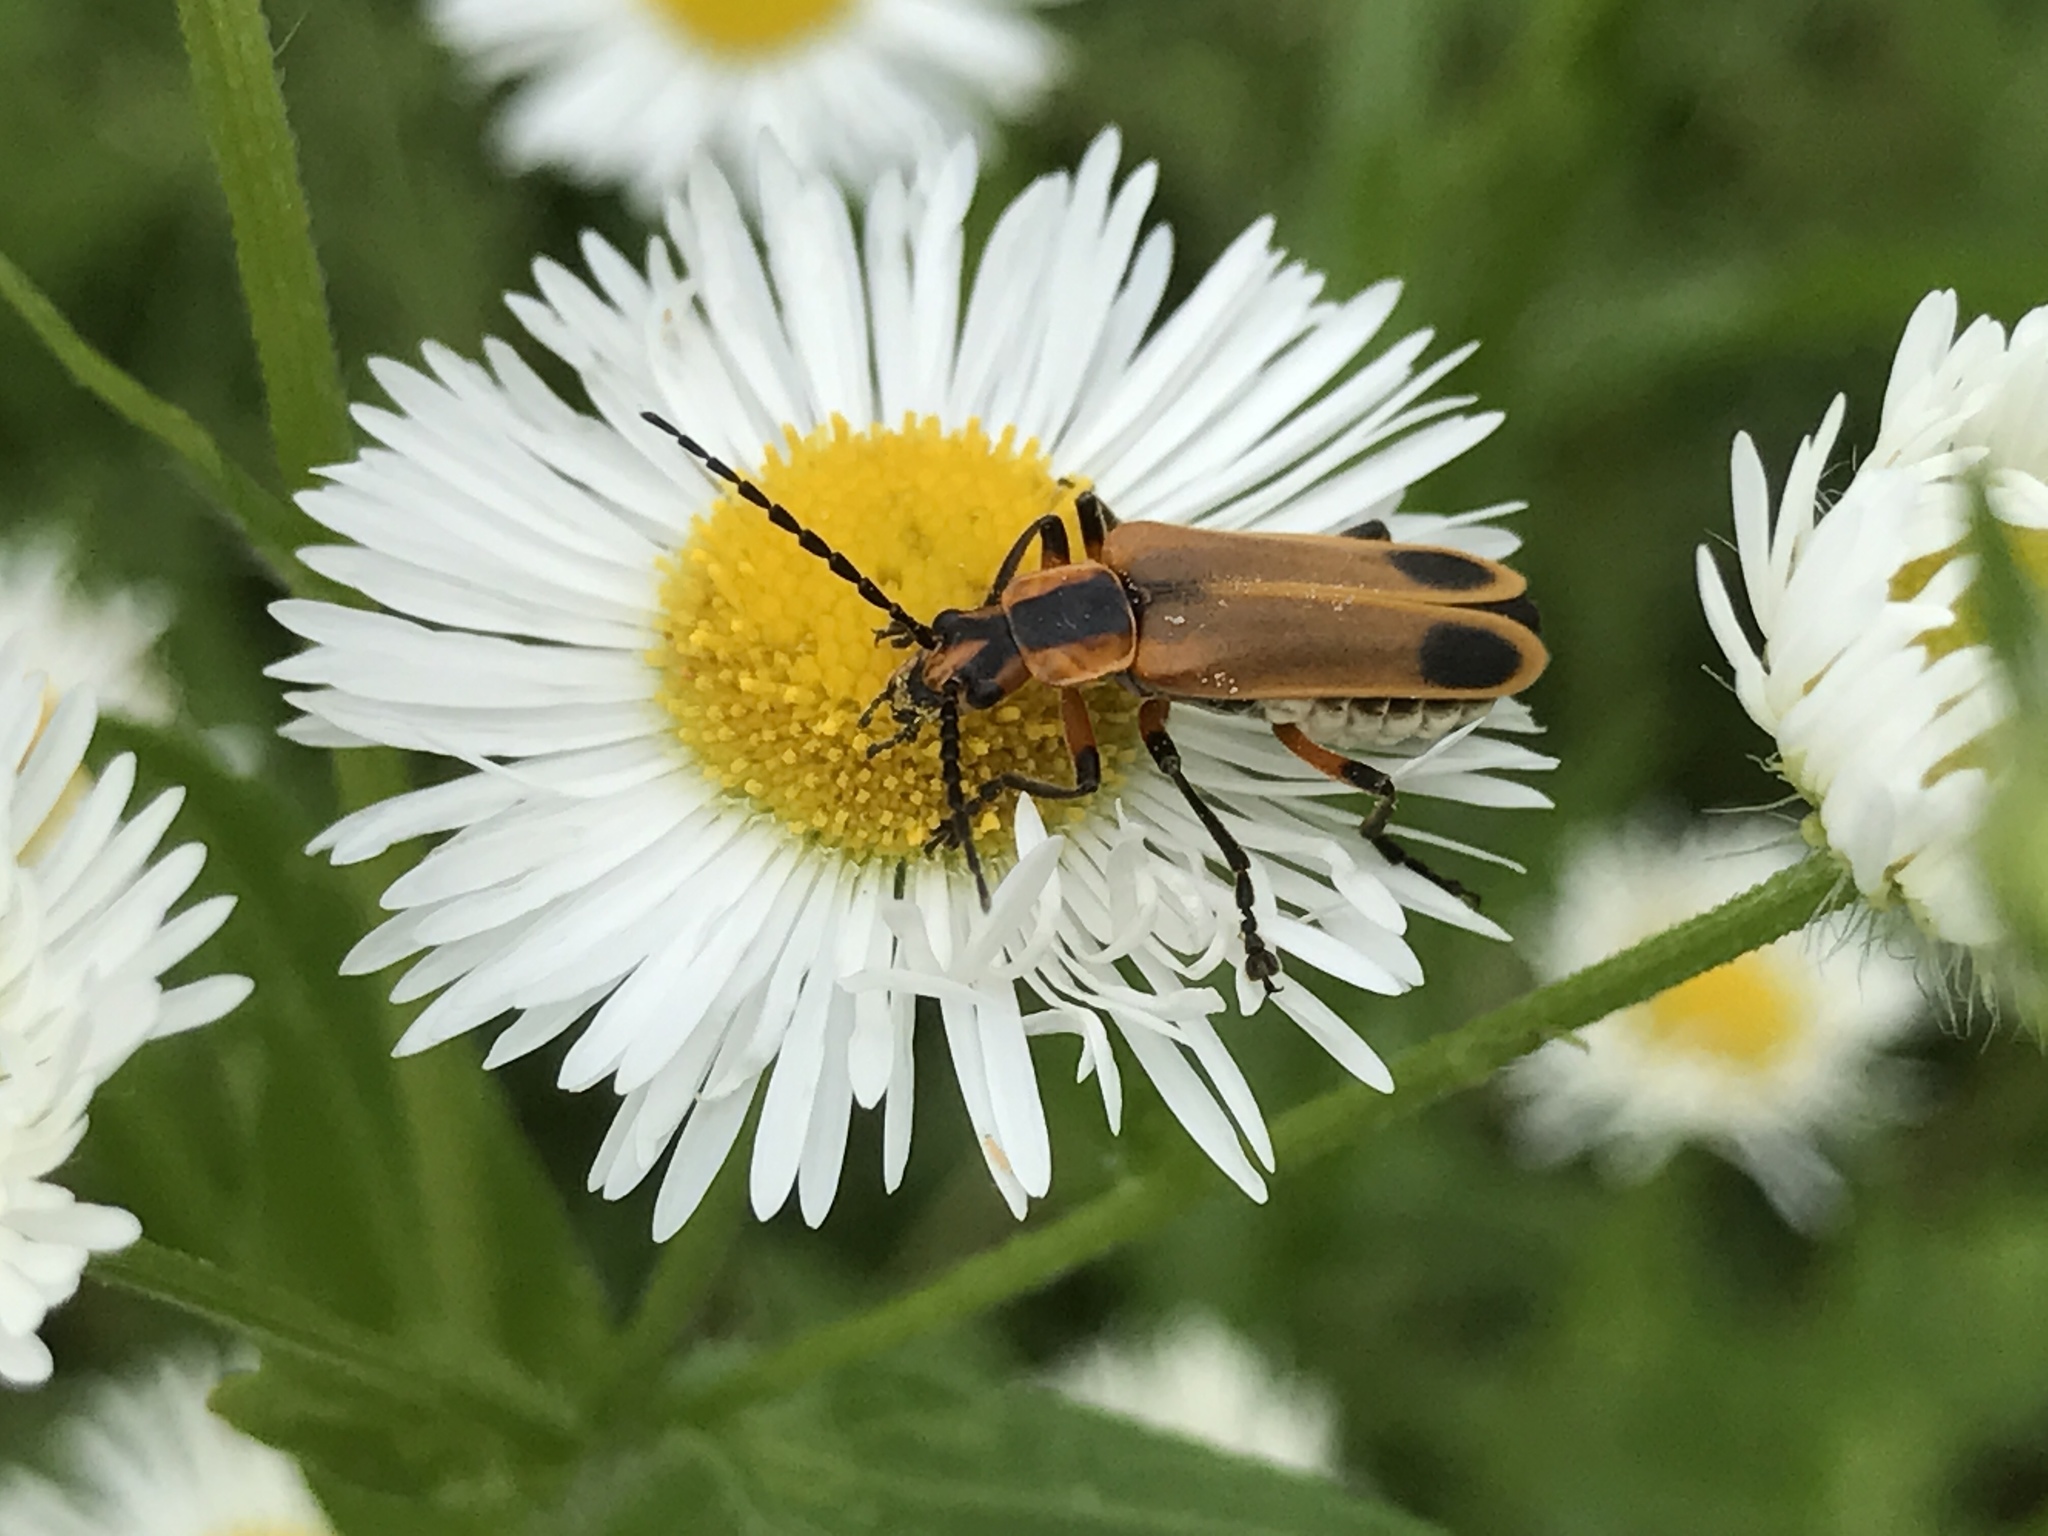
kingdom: Animalia
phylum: Arthropoda
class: Insecta
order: Coleoptera
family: Cantharidae
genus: Chauliognathus
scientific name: Chauliognathus marginatus
